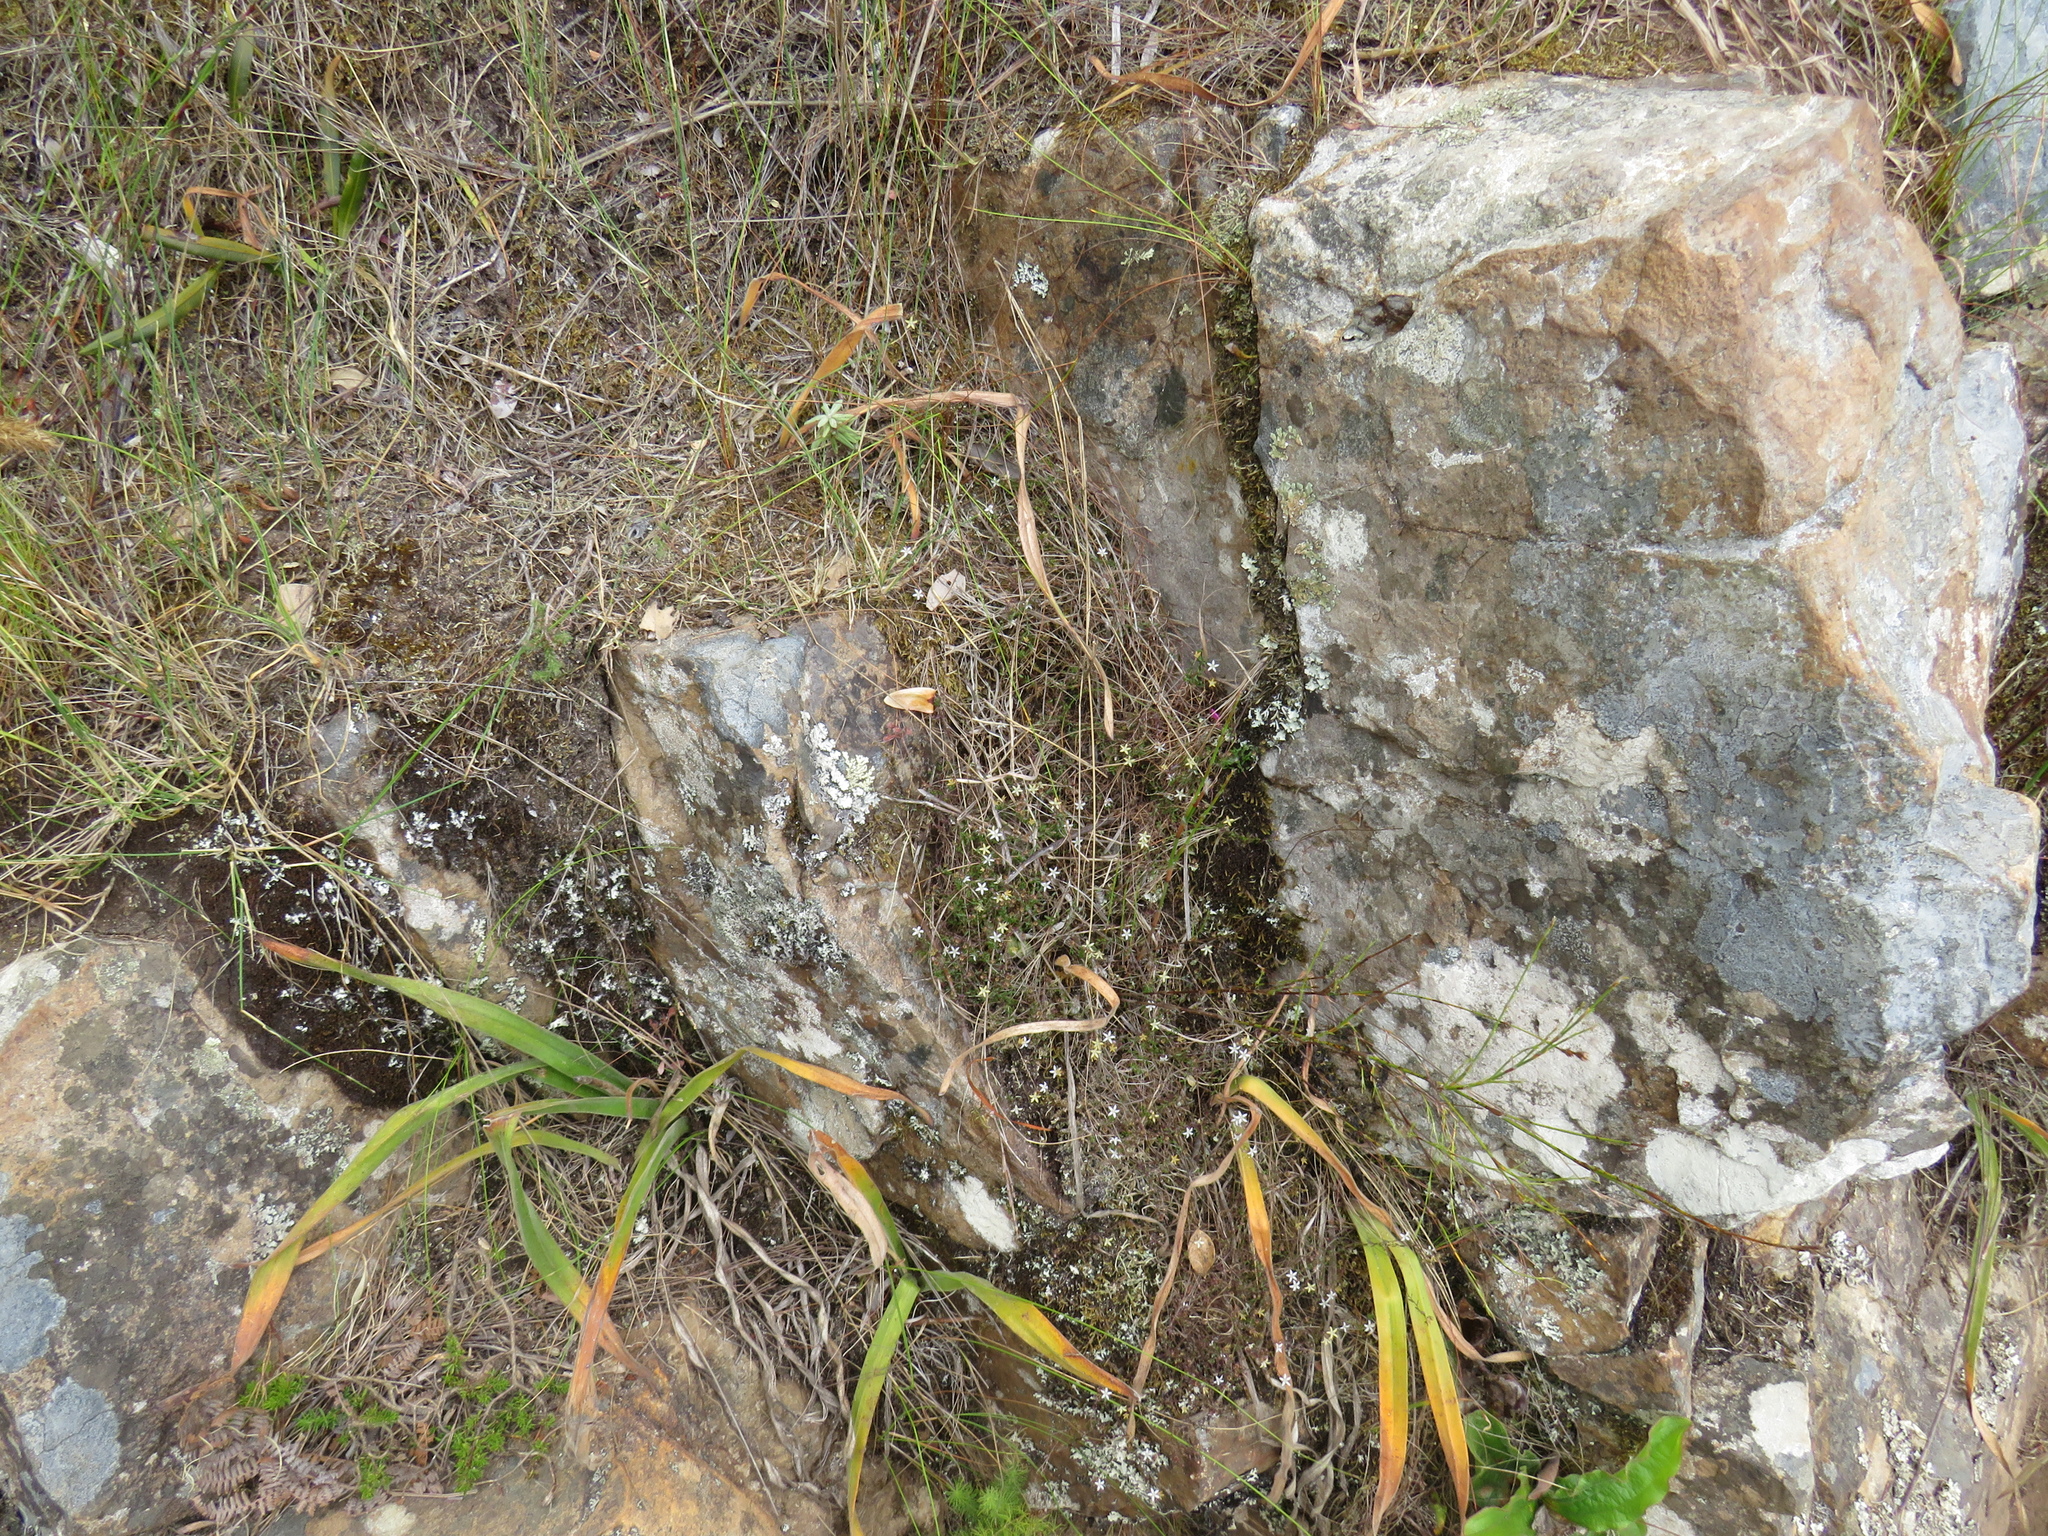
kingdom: Plantae
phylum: Tracheophyta
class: Magnoliopsida
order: Asterales
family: Campanulaceae
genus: Wahlenbergia
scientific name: Wahlenbergia parvifolia
